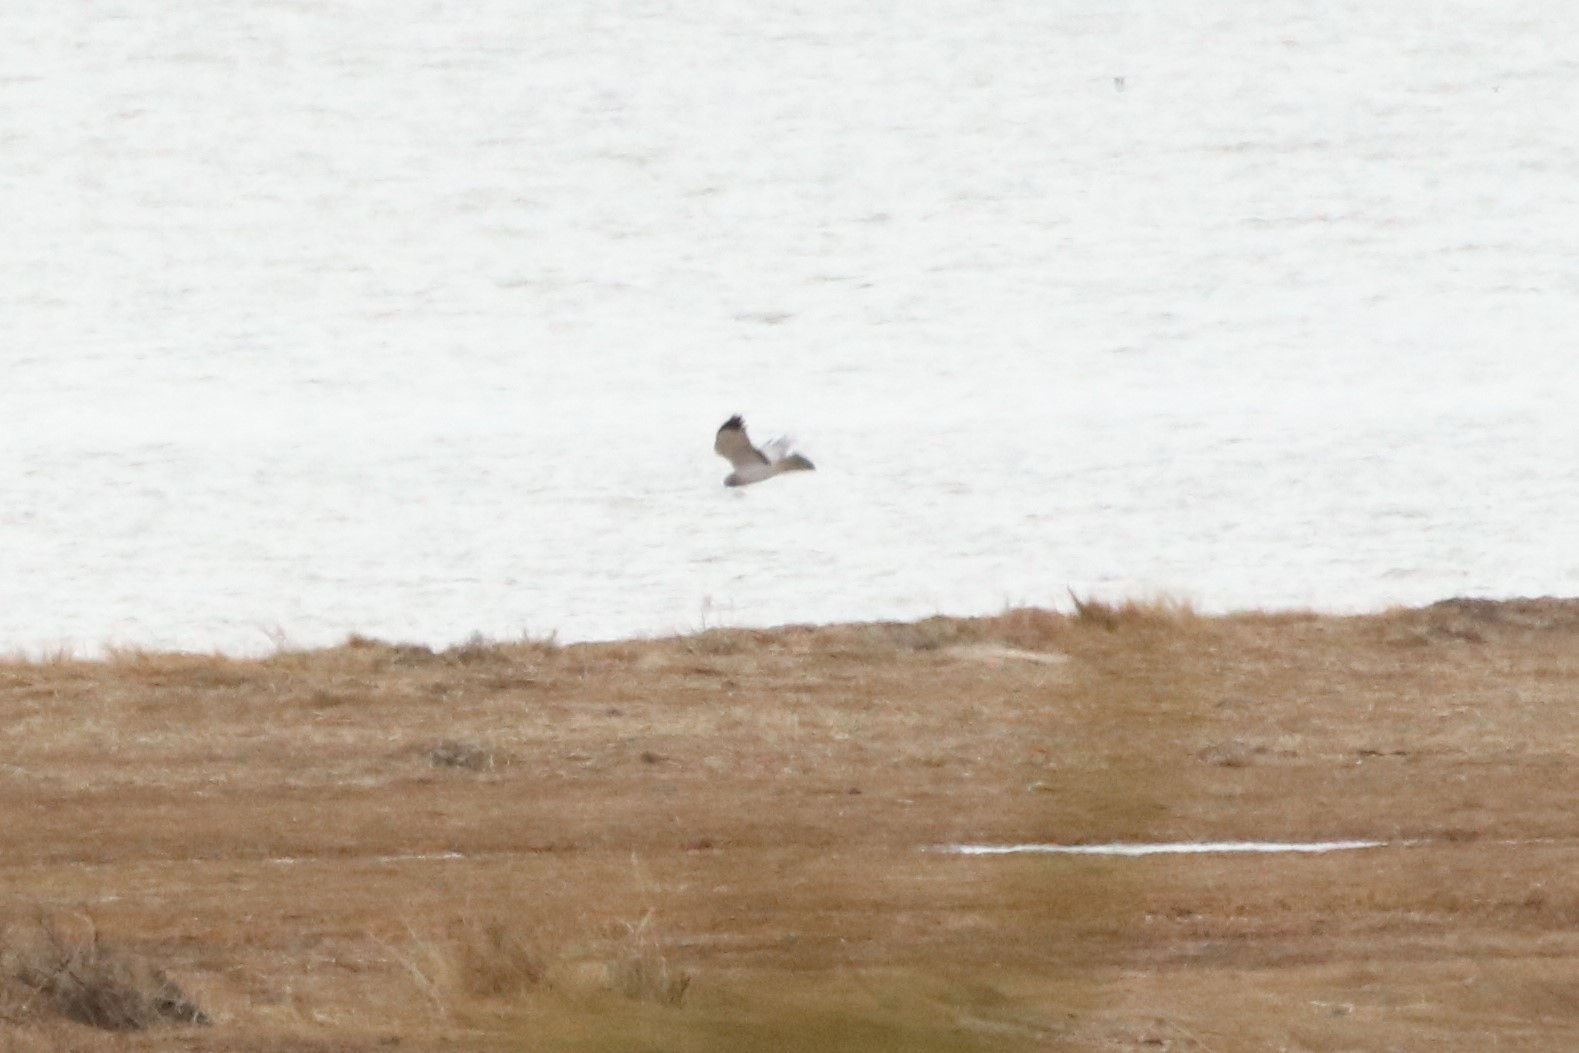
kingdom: Animalia
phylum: Chordata
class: Aves
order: Accipitriformes
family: Accipitridae
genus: Circus
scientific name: Circus cyaneus
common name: Hen harrier
